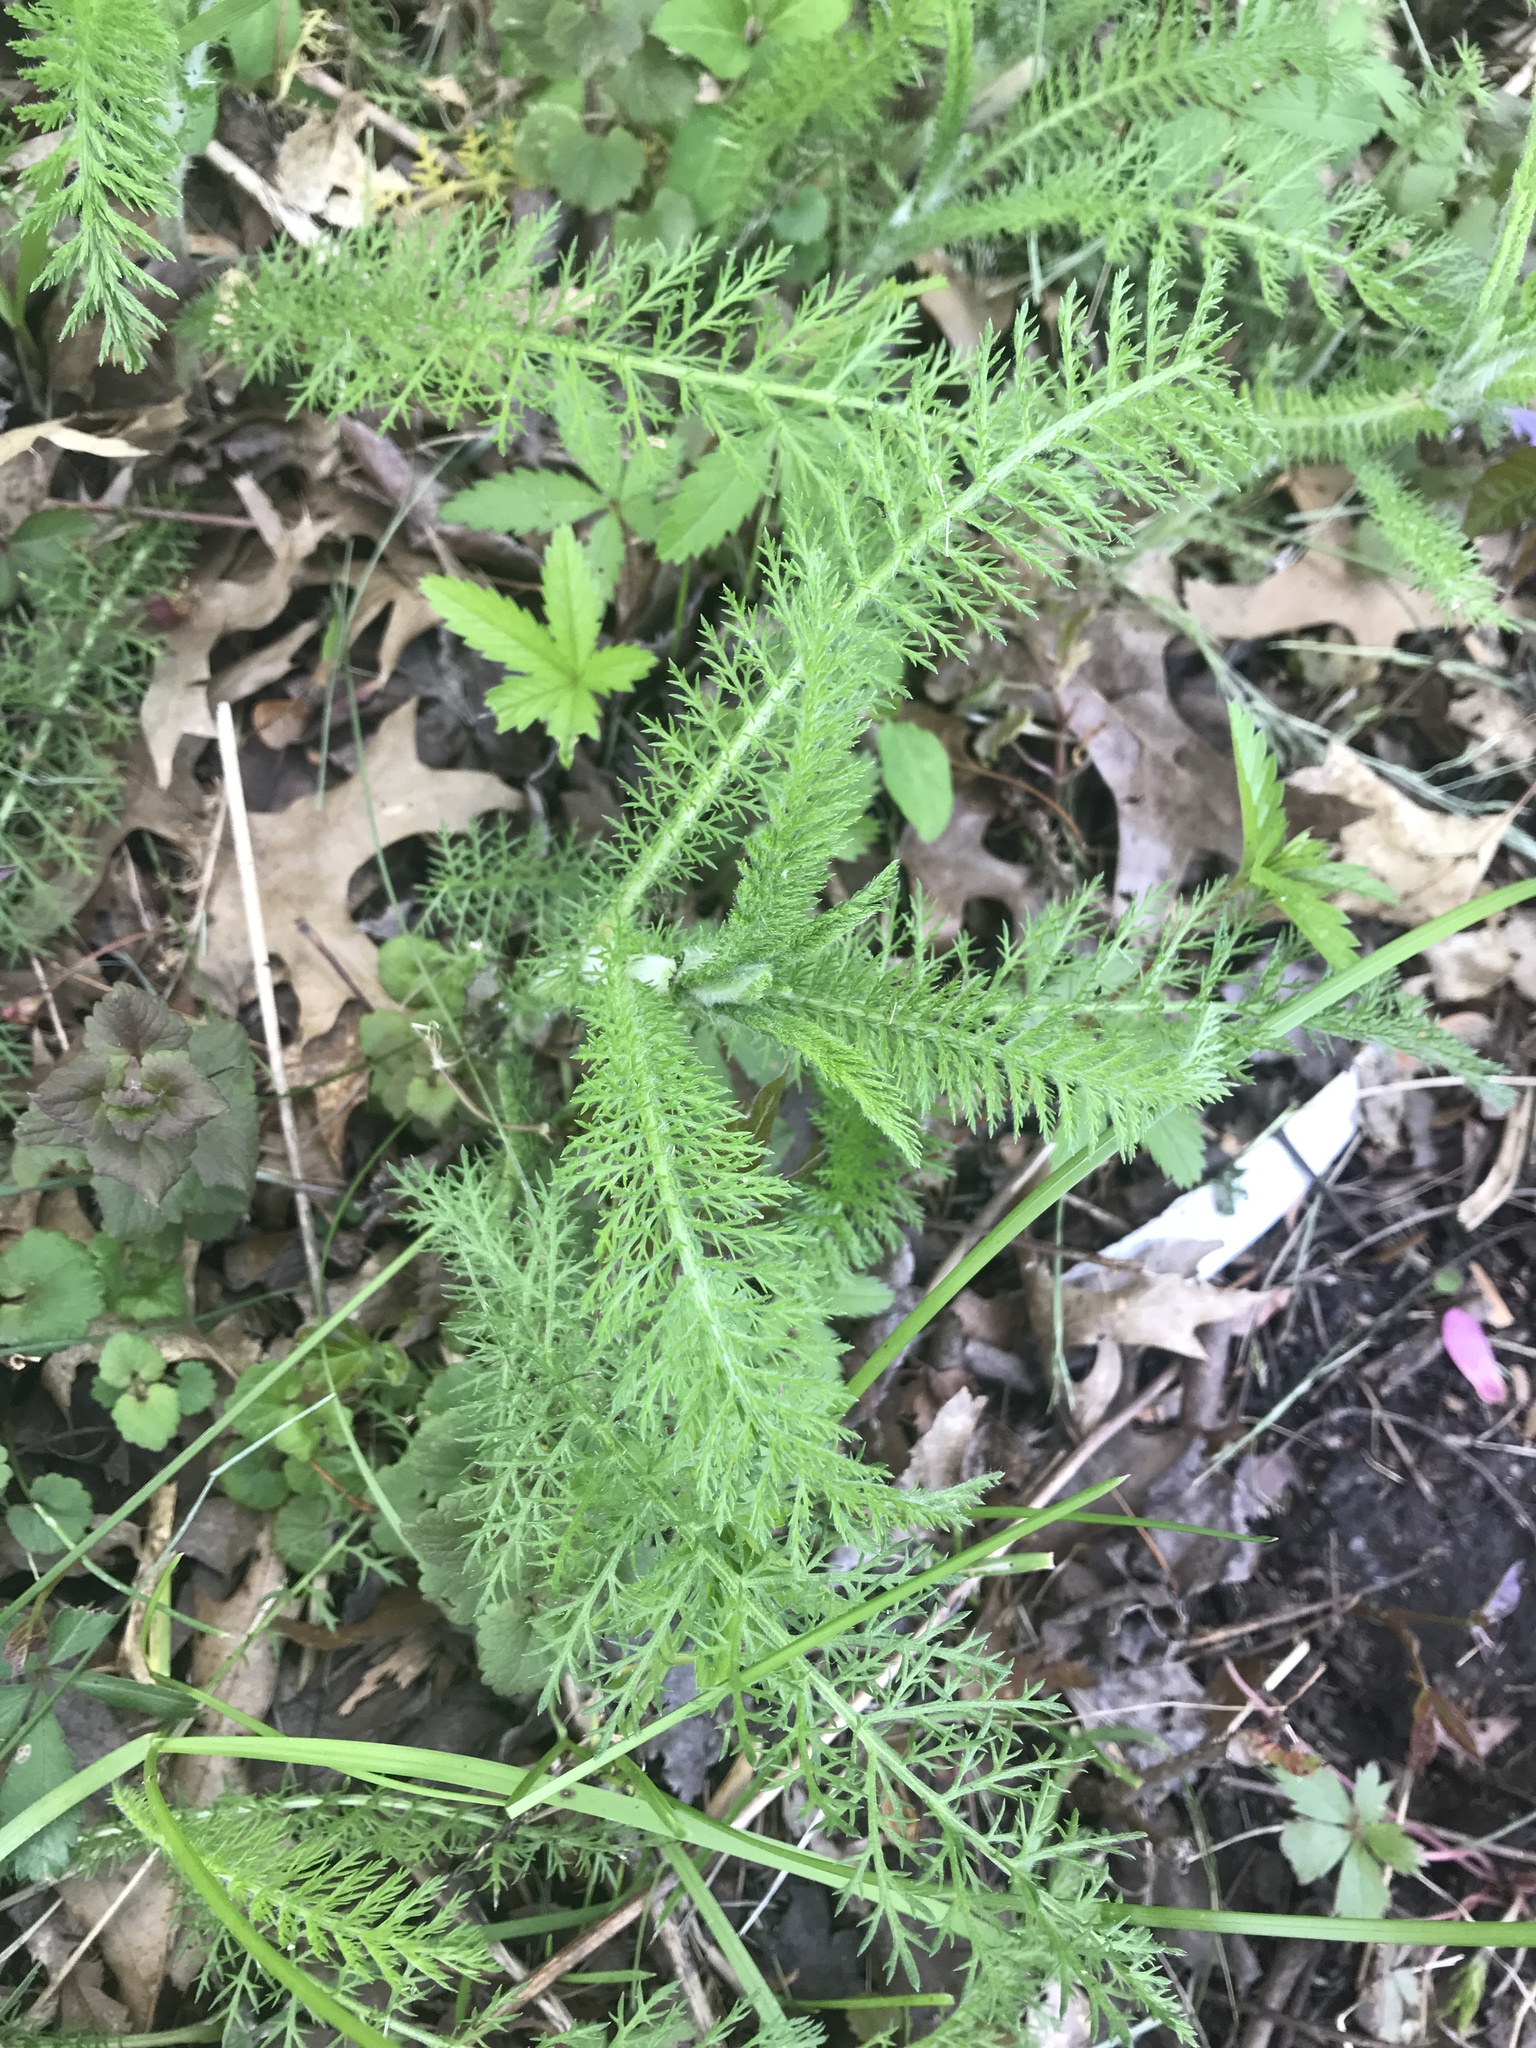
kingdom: Plantae
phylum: Tracheophyta
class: Magnoliopsida
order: Asterales
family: Asteraceae
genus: Achillea
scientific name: Achillea millefolium
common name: Yarrow
